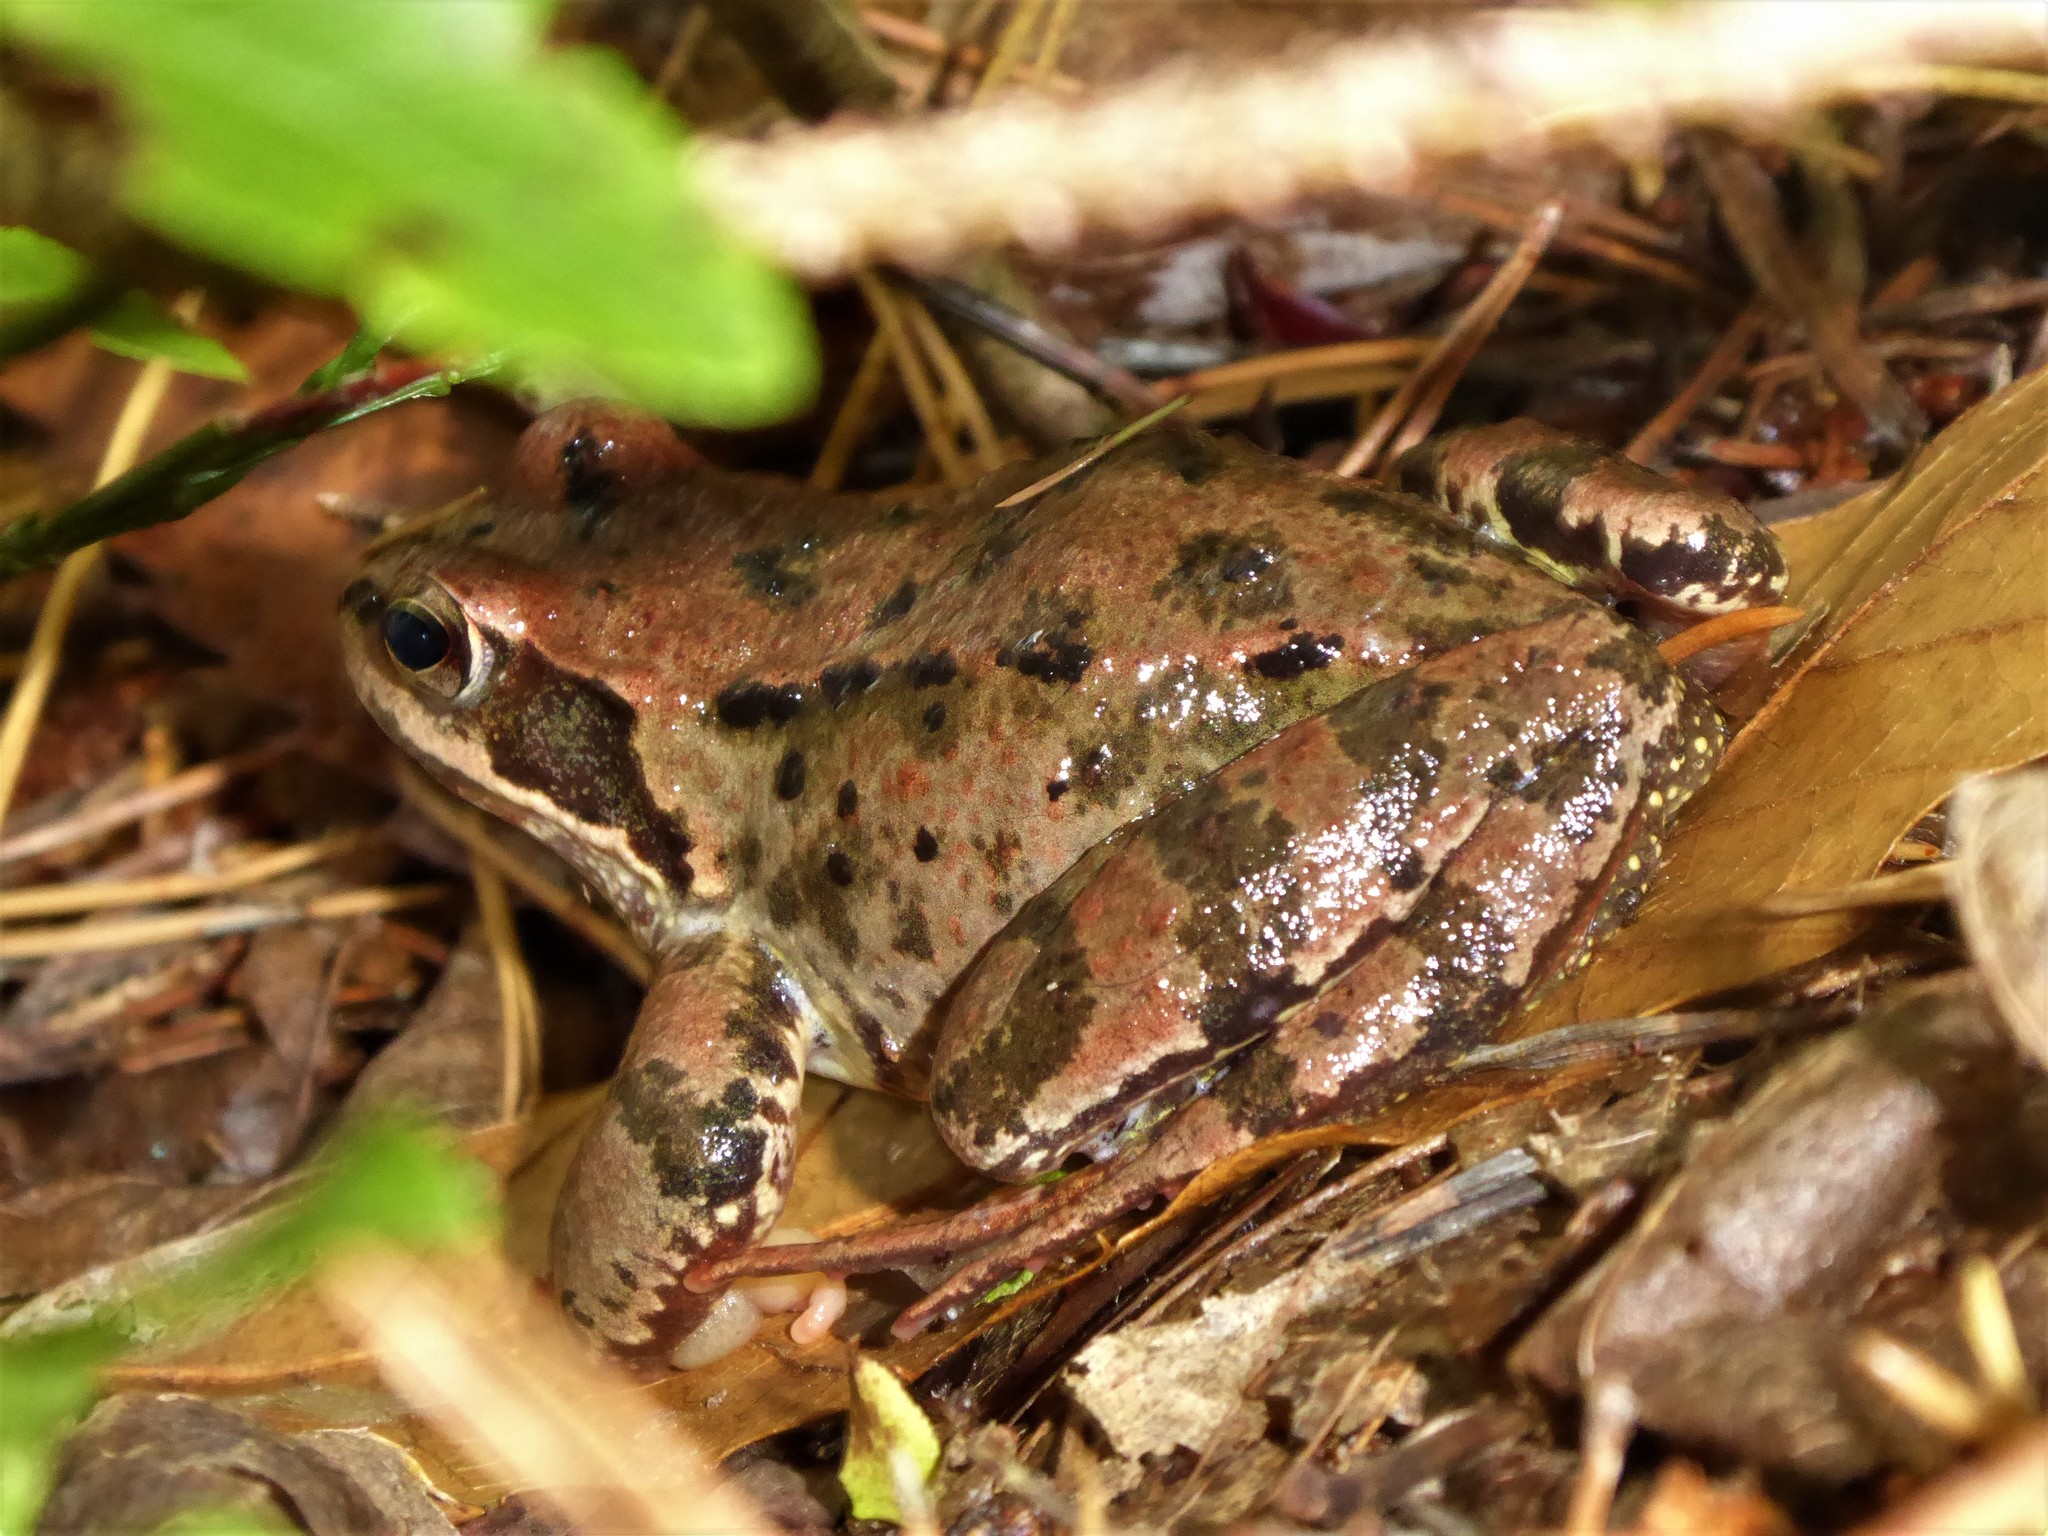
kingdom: Animalia
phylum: Chordata
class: Amphibia
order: Anura
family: Ranidae
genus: Rana
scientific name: Rana temporaria
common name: Common frog
